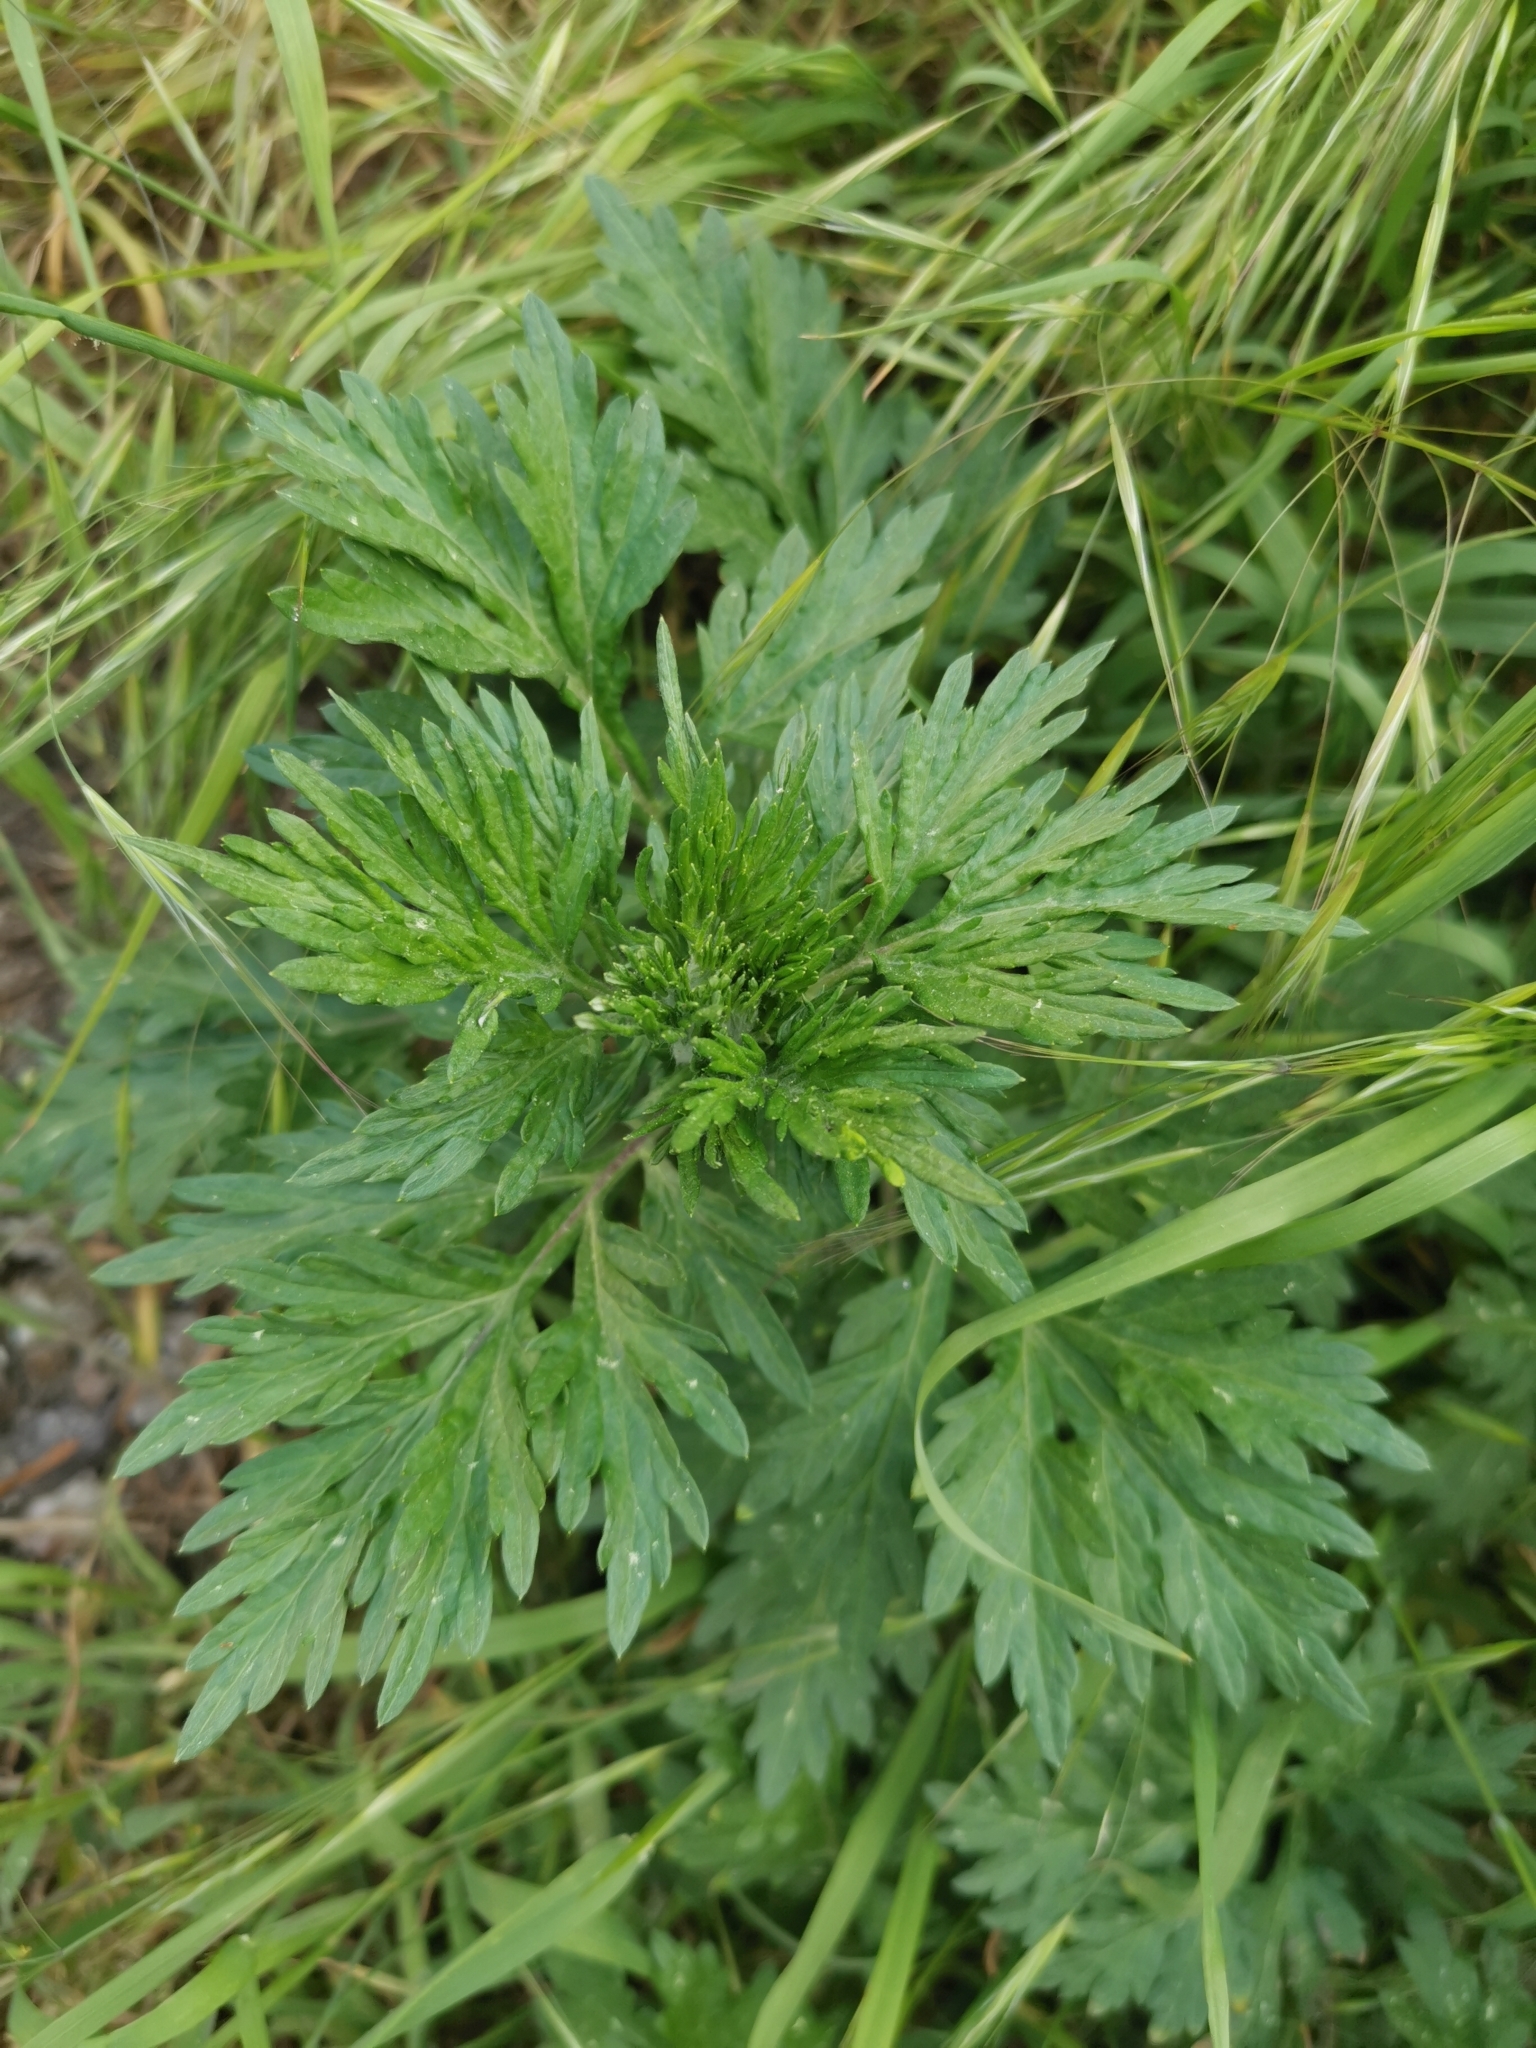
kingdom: Plantae
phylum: Tracheophyta
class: Magnoliopsida
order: Asterales
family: Asteraceae
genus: Artemisia
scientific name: Artemisia vulgaris
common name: Mugwort
